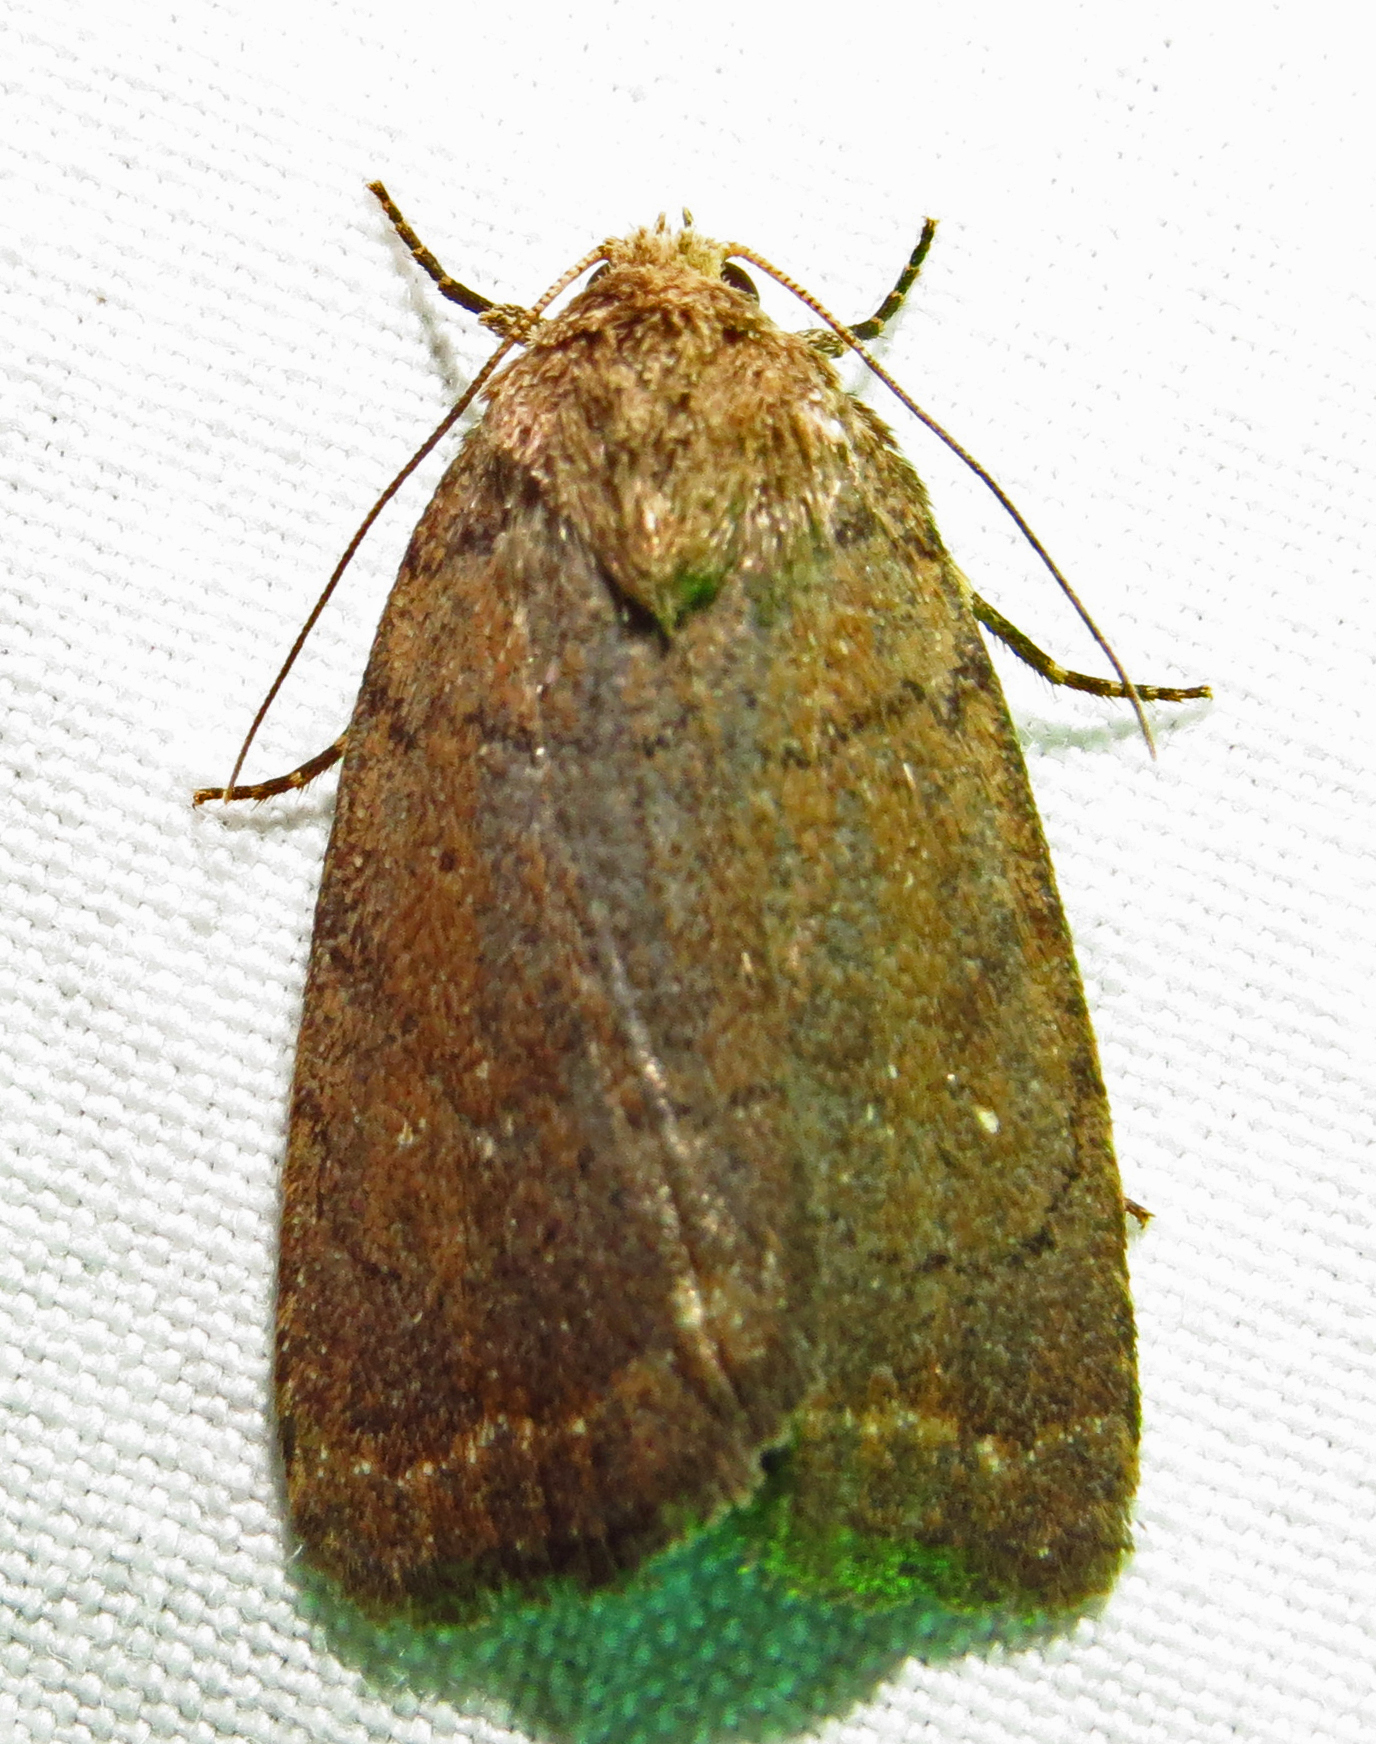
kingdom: Animalia
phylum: Arthropoda
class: Insecta
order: Lepidoptera
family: Noctuidae
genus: Athetis
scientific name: Athetis tarda
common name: Slowpoke moth
